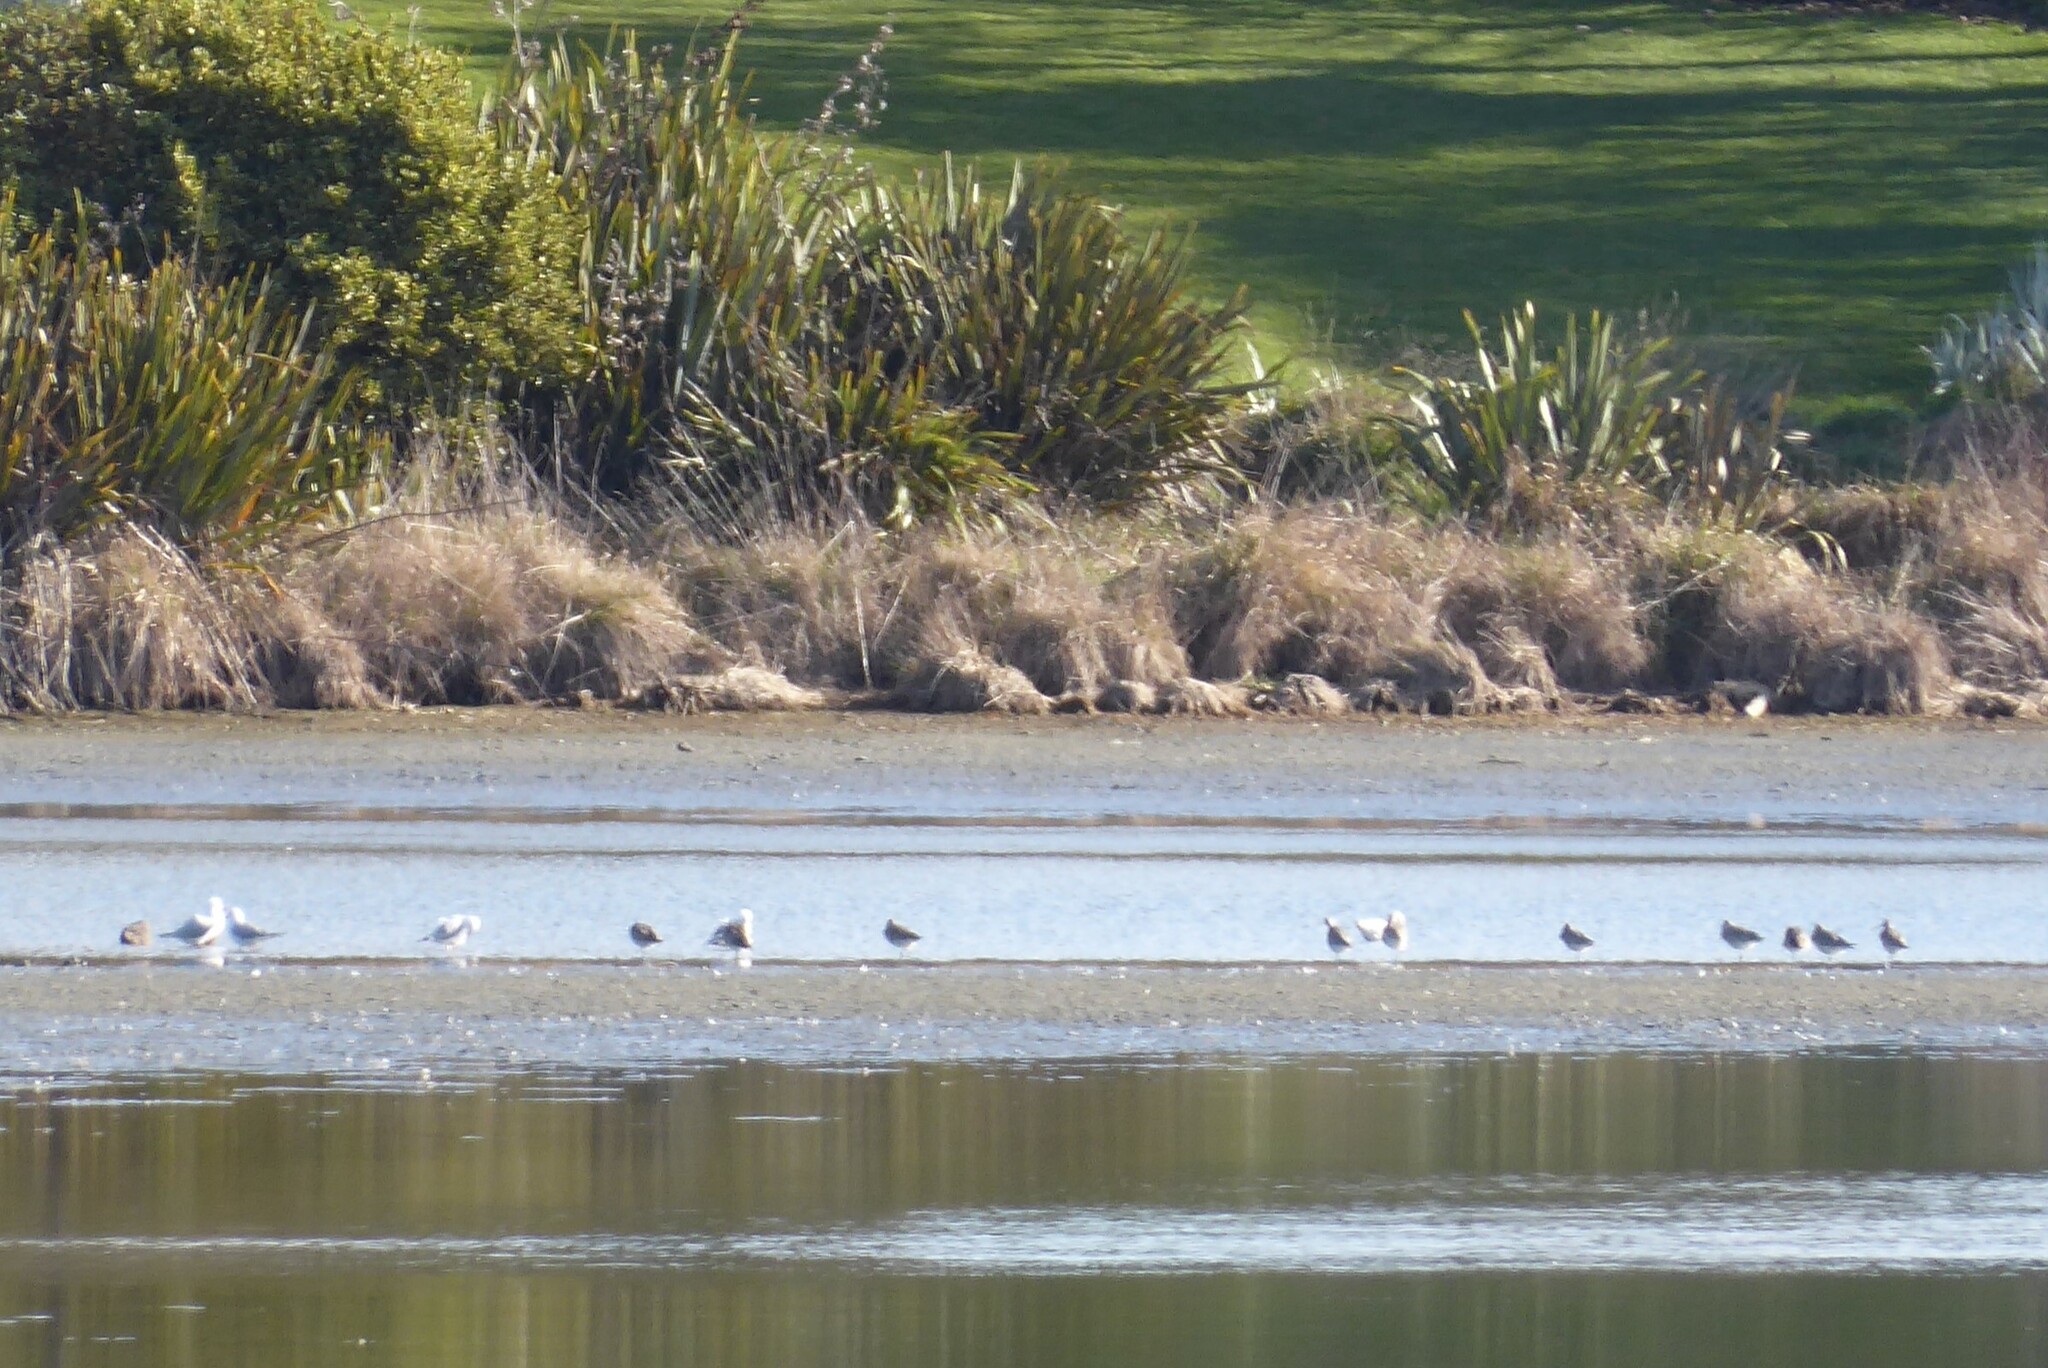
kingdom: Animalia
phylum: Chordata
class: Aves
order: Charadriiformes
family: Scolopacidae
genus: Limosa
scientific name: Limosa lapponica
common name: Bar-tailed godwit
